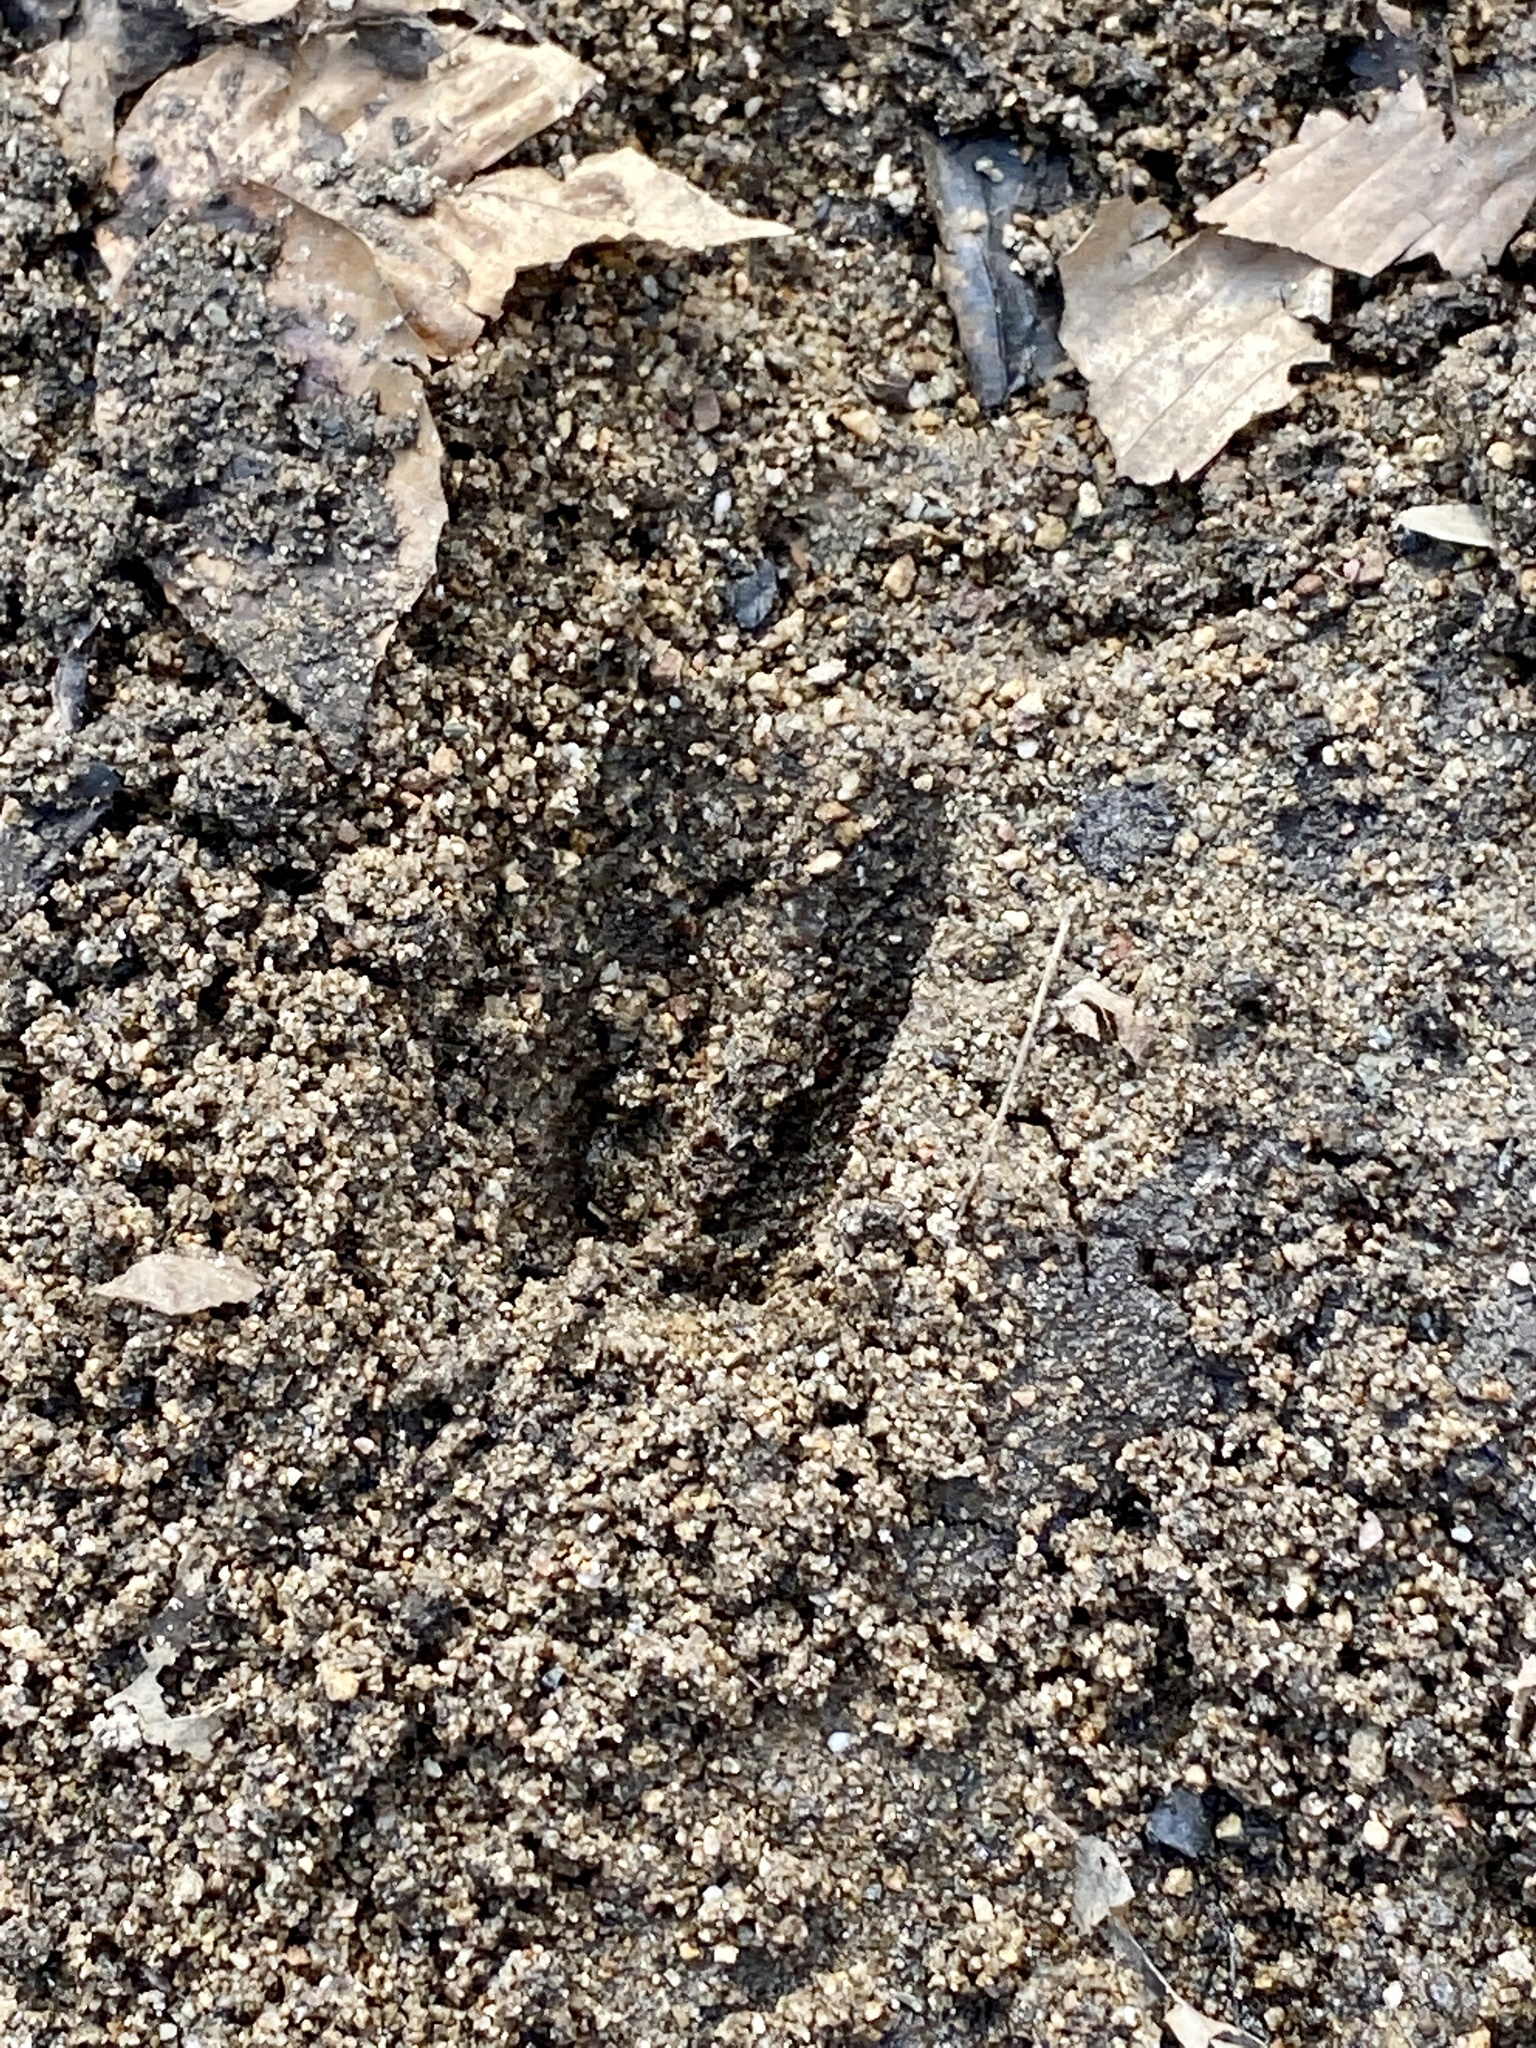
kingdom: Animalia
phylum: Chordata
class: Mammalia
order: Artiodactyla
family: Cervidae
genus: Odocoileus
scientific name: Odocoileus virginianus
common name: White-tailed deer
